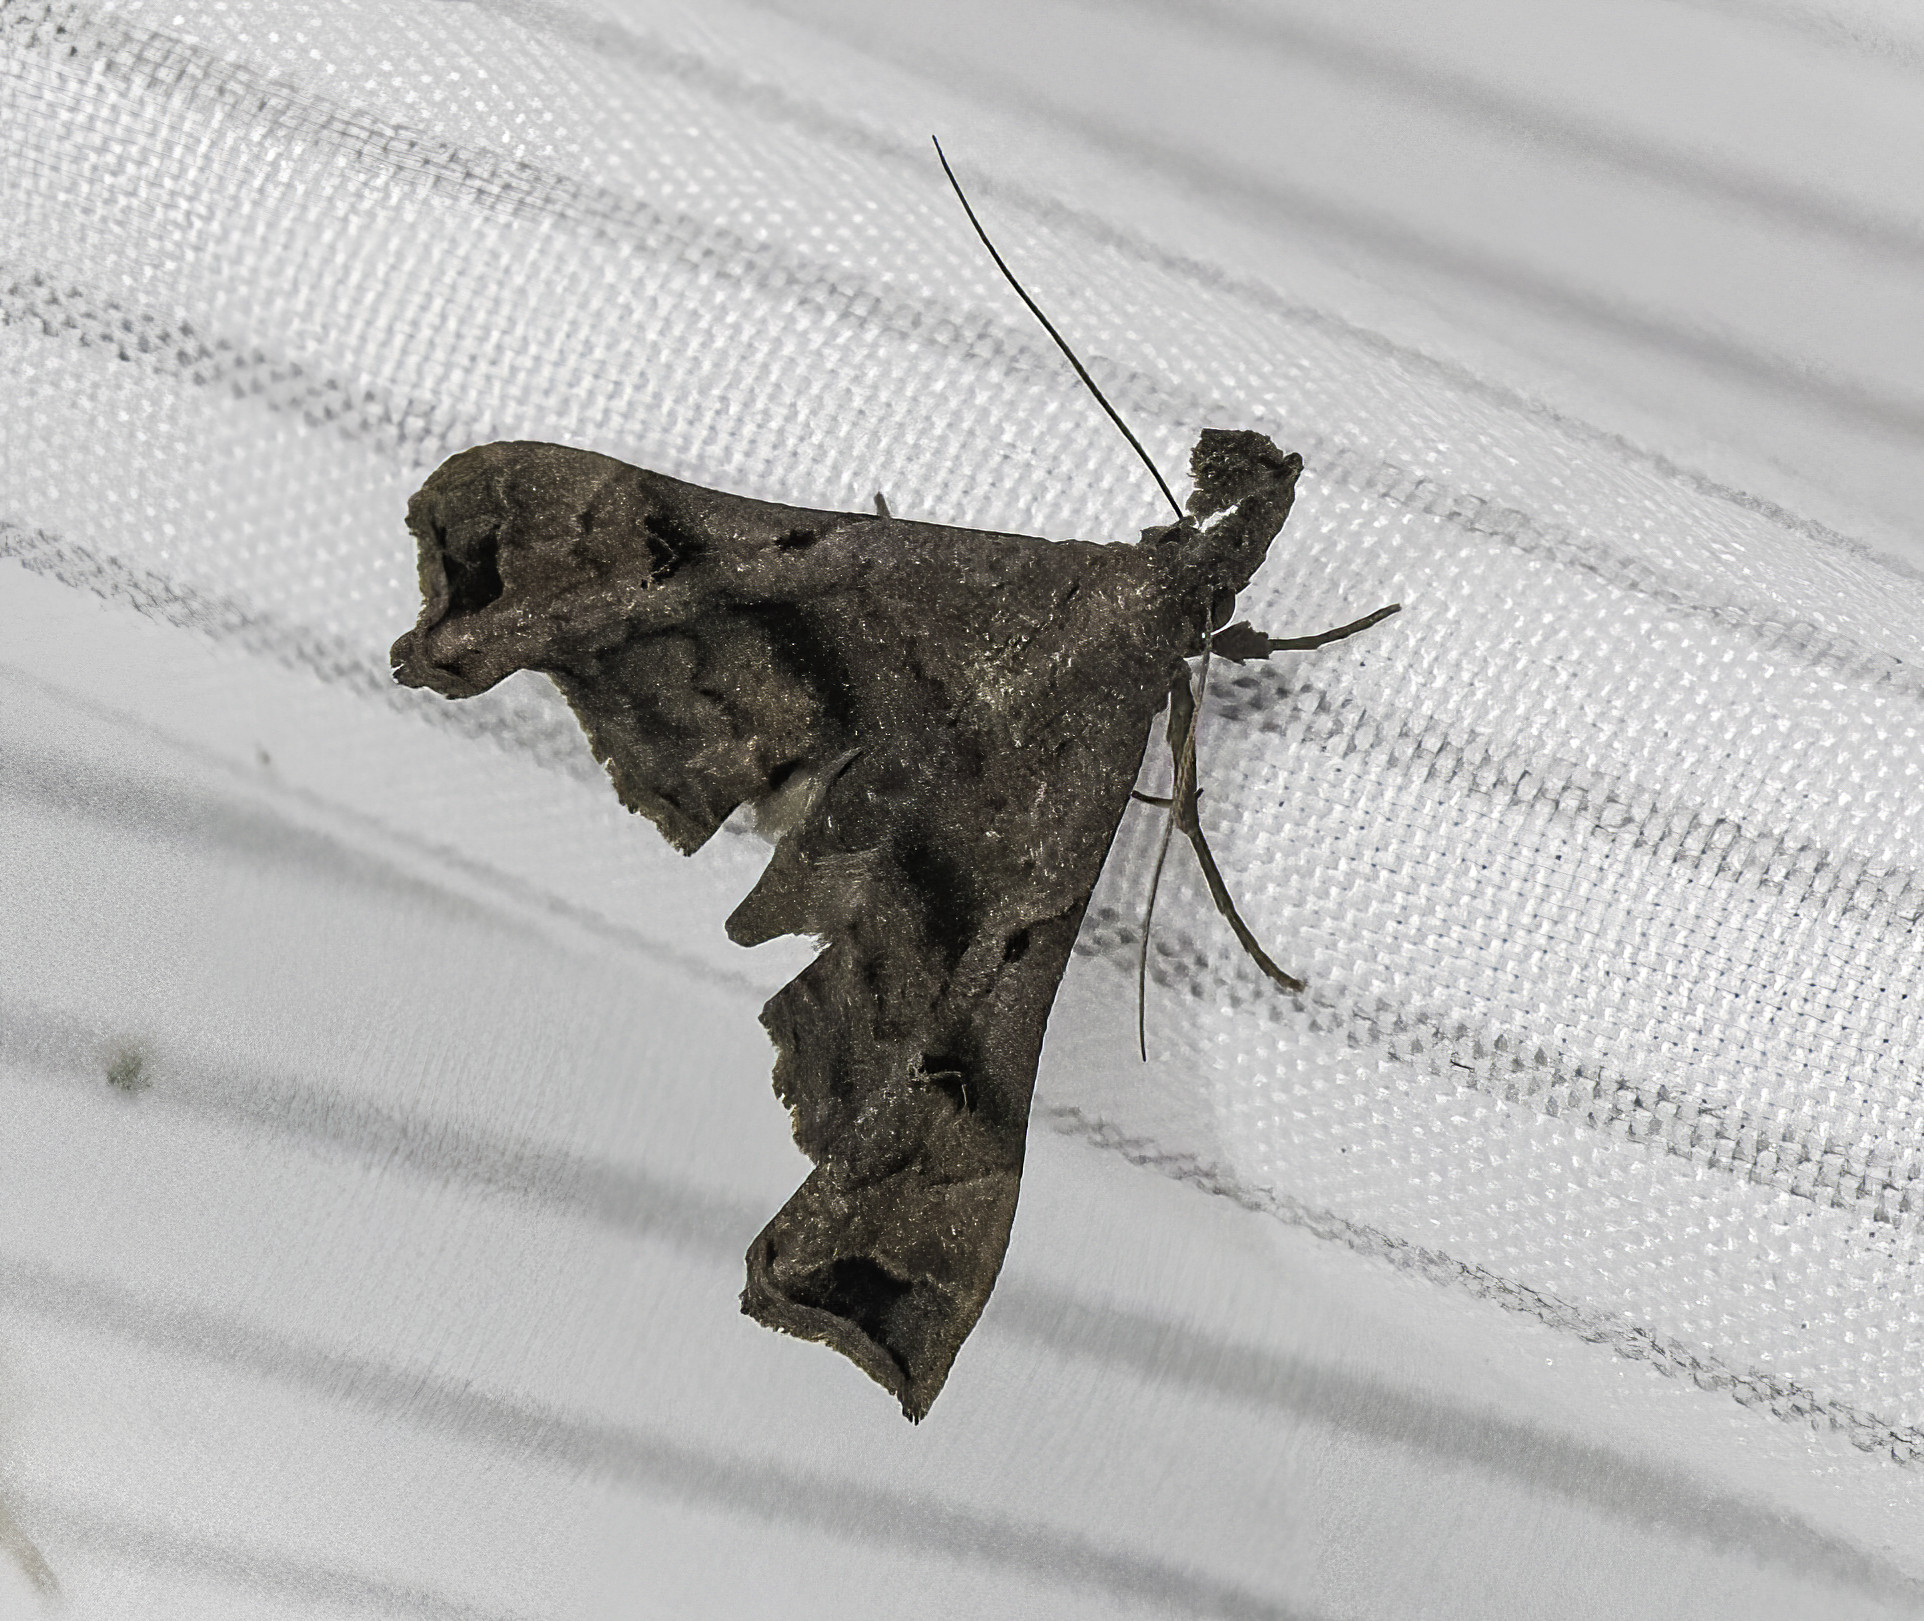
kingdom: Animalia
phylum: Arthropoda
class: Insecta
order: Lepidoptera
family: Erebidae
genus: Palthis
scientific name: Palthis asopialis
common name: Faint-spotted palthis moth
